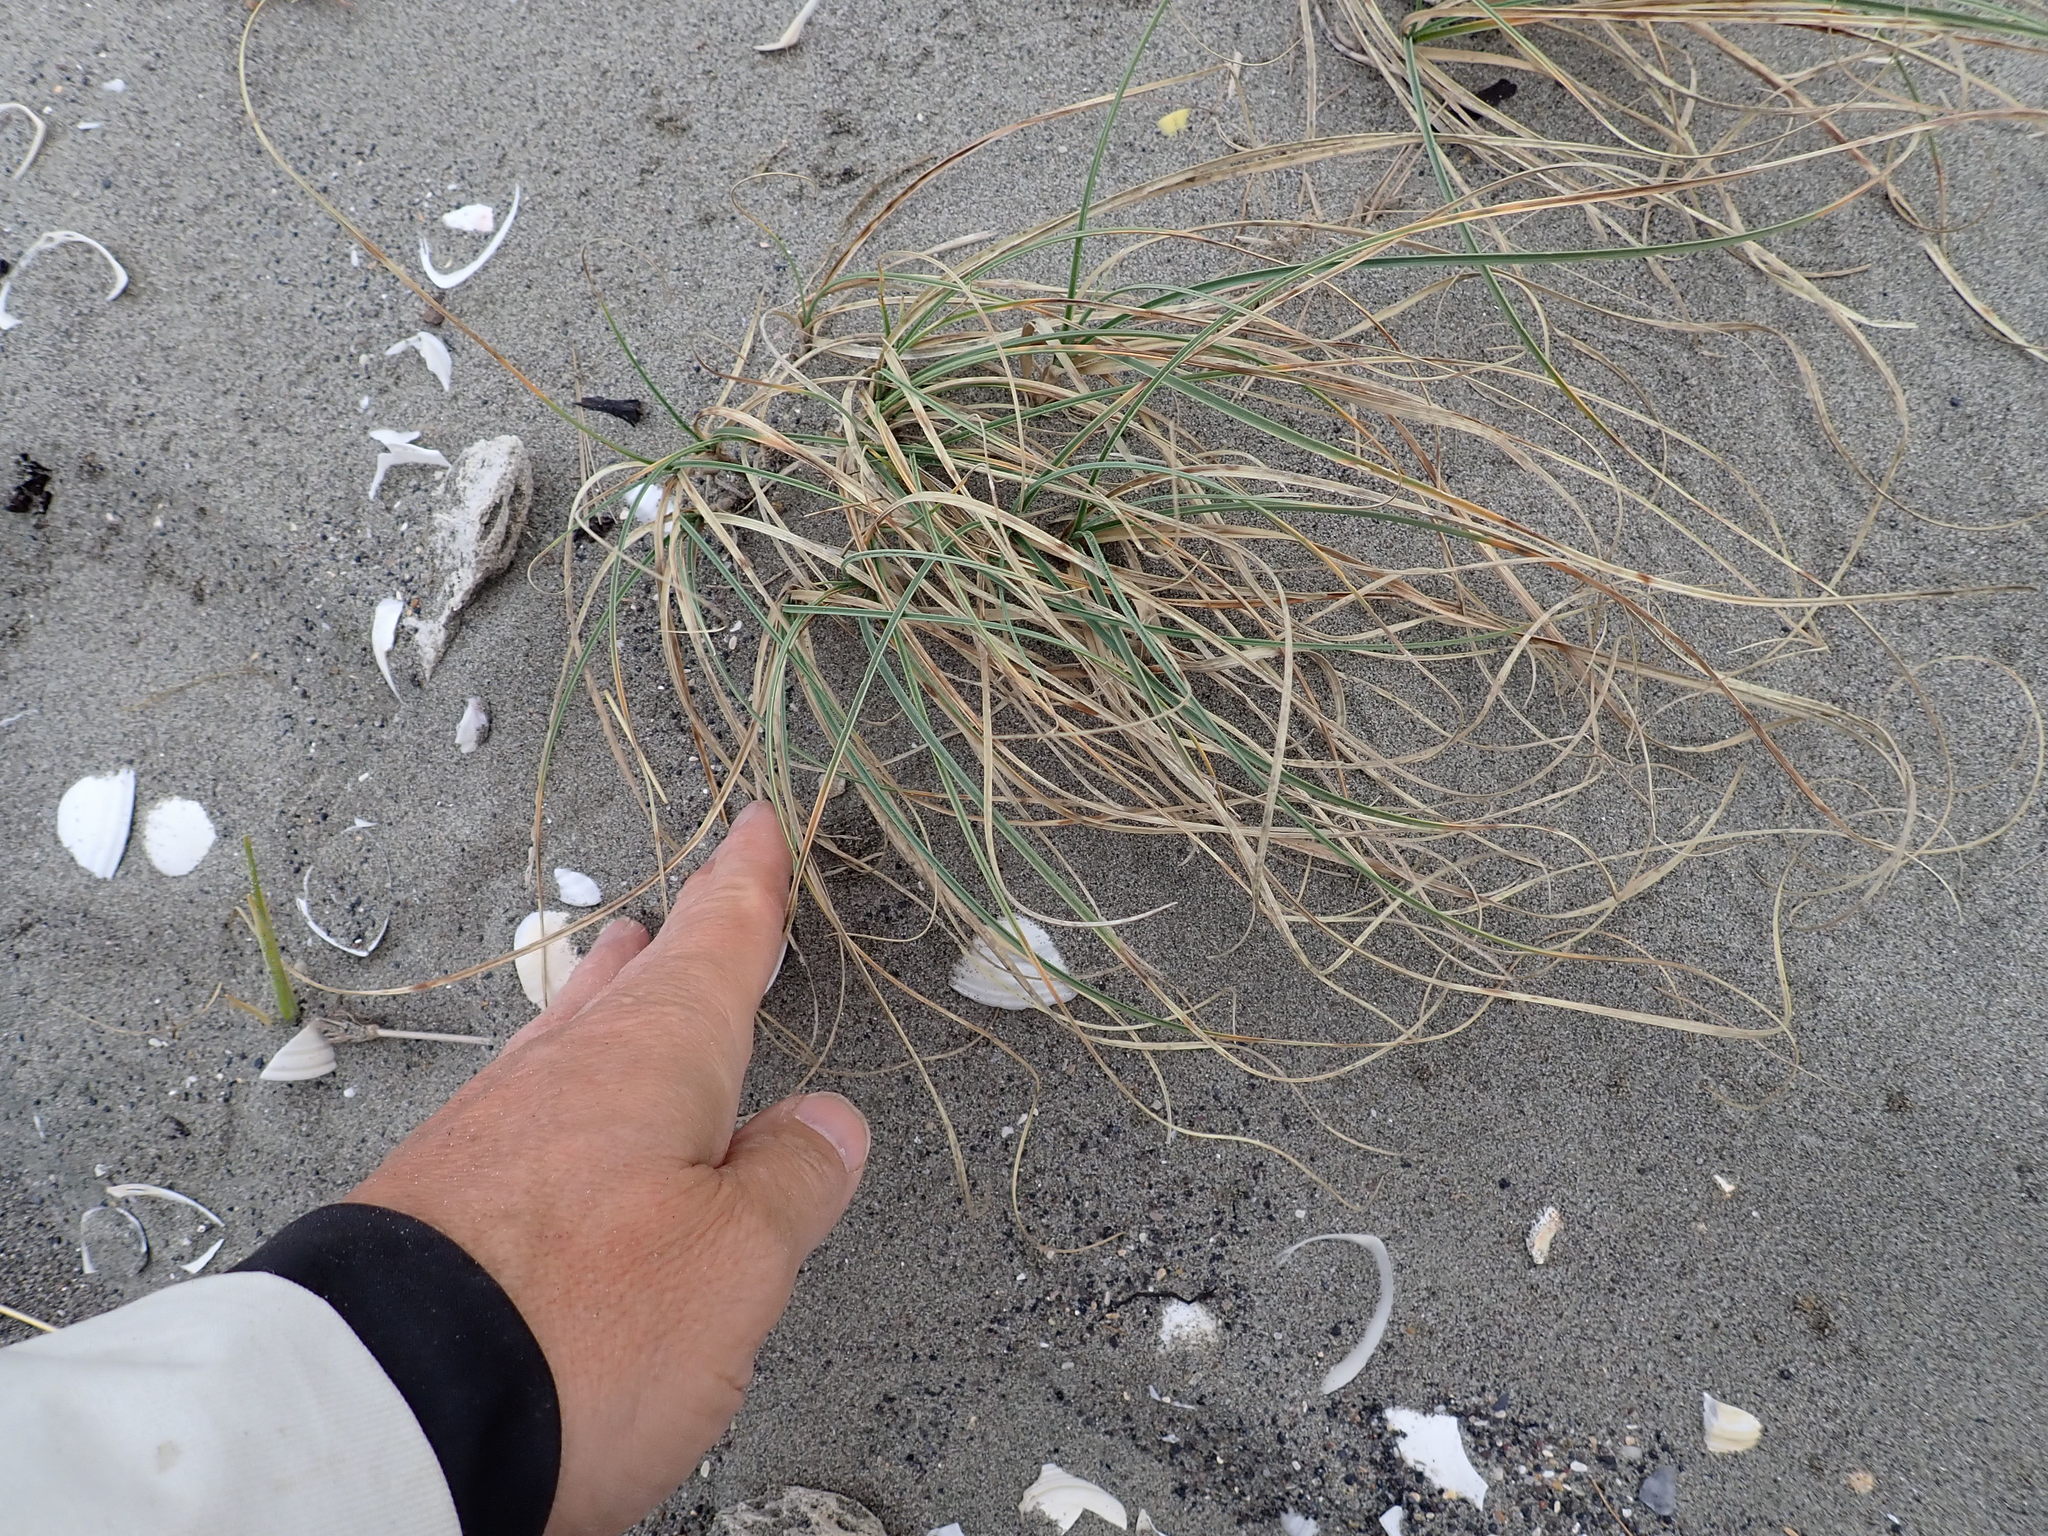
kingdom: Plantae
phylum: Tracheophyta
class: Liliopsida
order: Poales
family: Cyperaceae
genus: Carex
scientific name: Carex pumila
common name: Dwarf sedge
